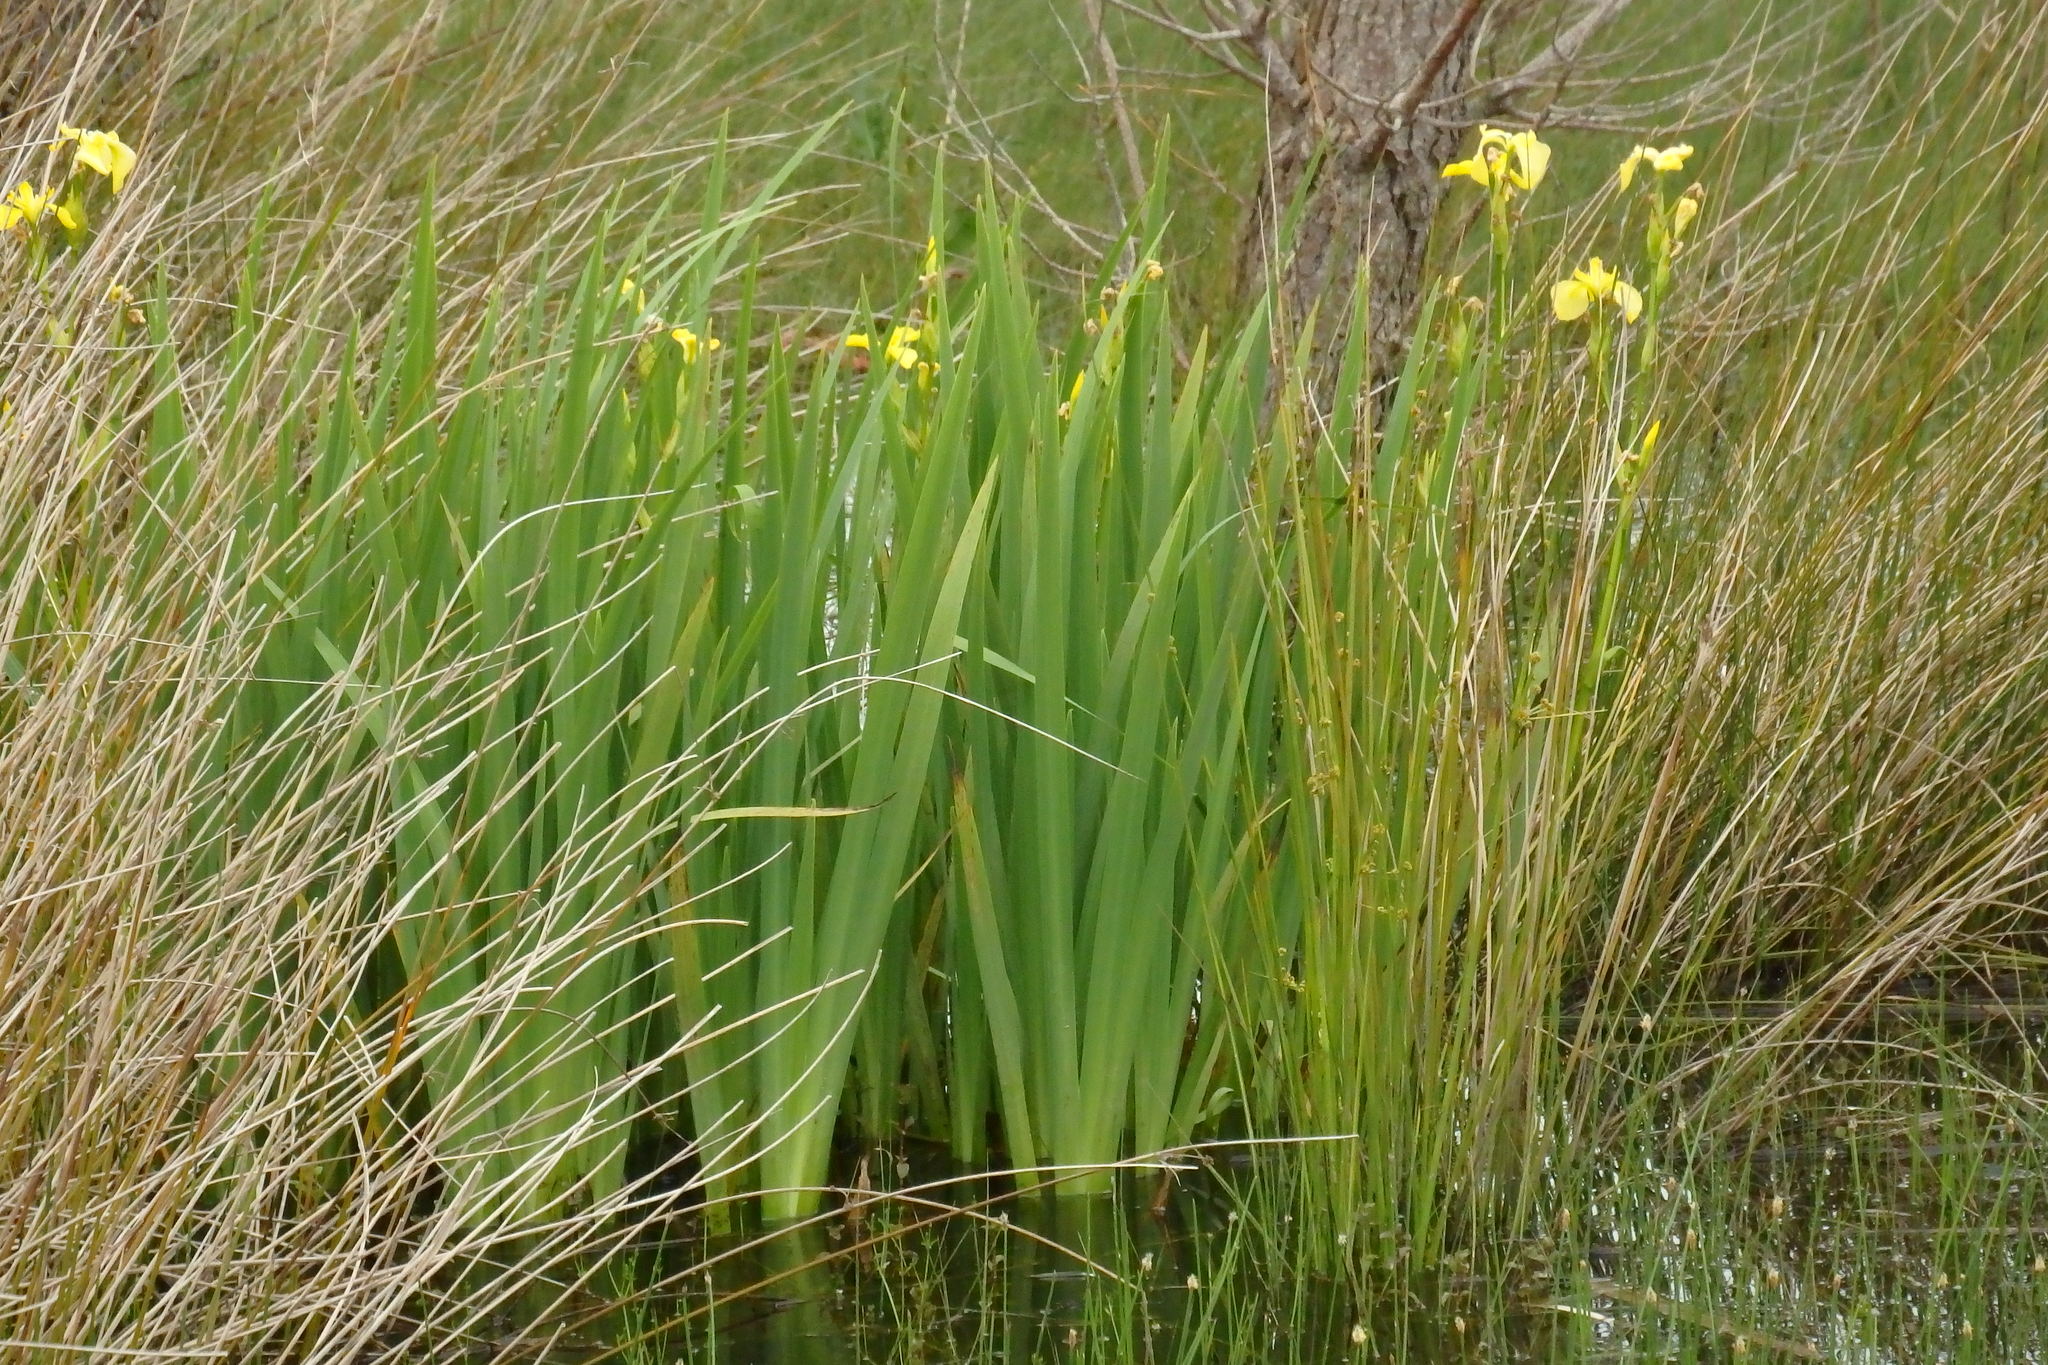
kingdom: Plantae
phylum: Tracheophyta
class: Liliopsida
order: Asparagales
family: Iridaceae
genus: Iris
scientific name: Iris pseudacorus
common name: Yellow flag
